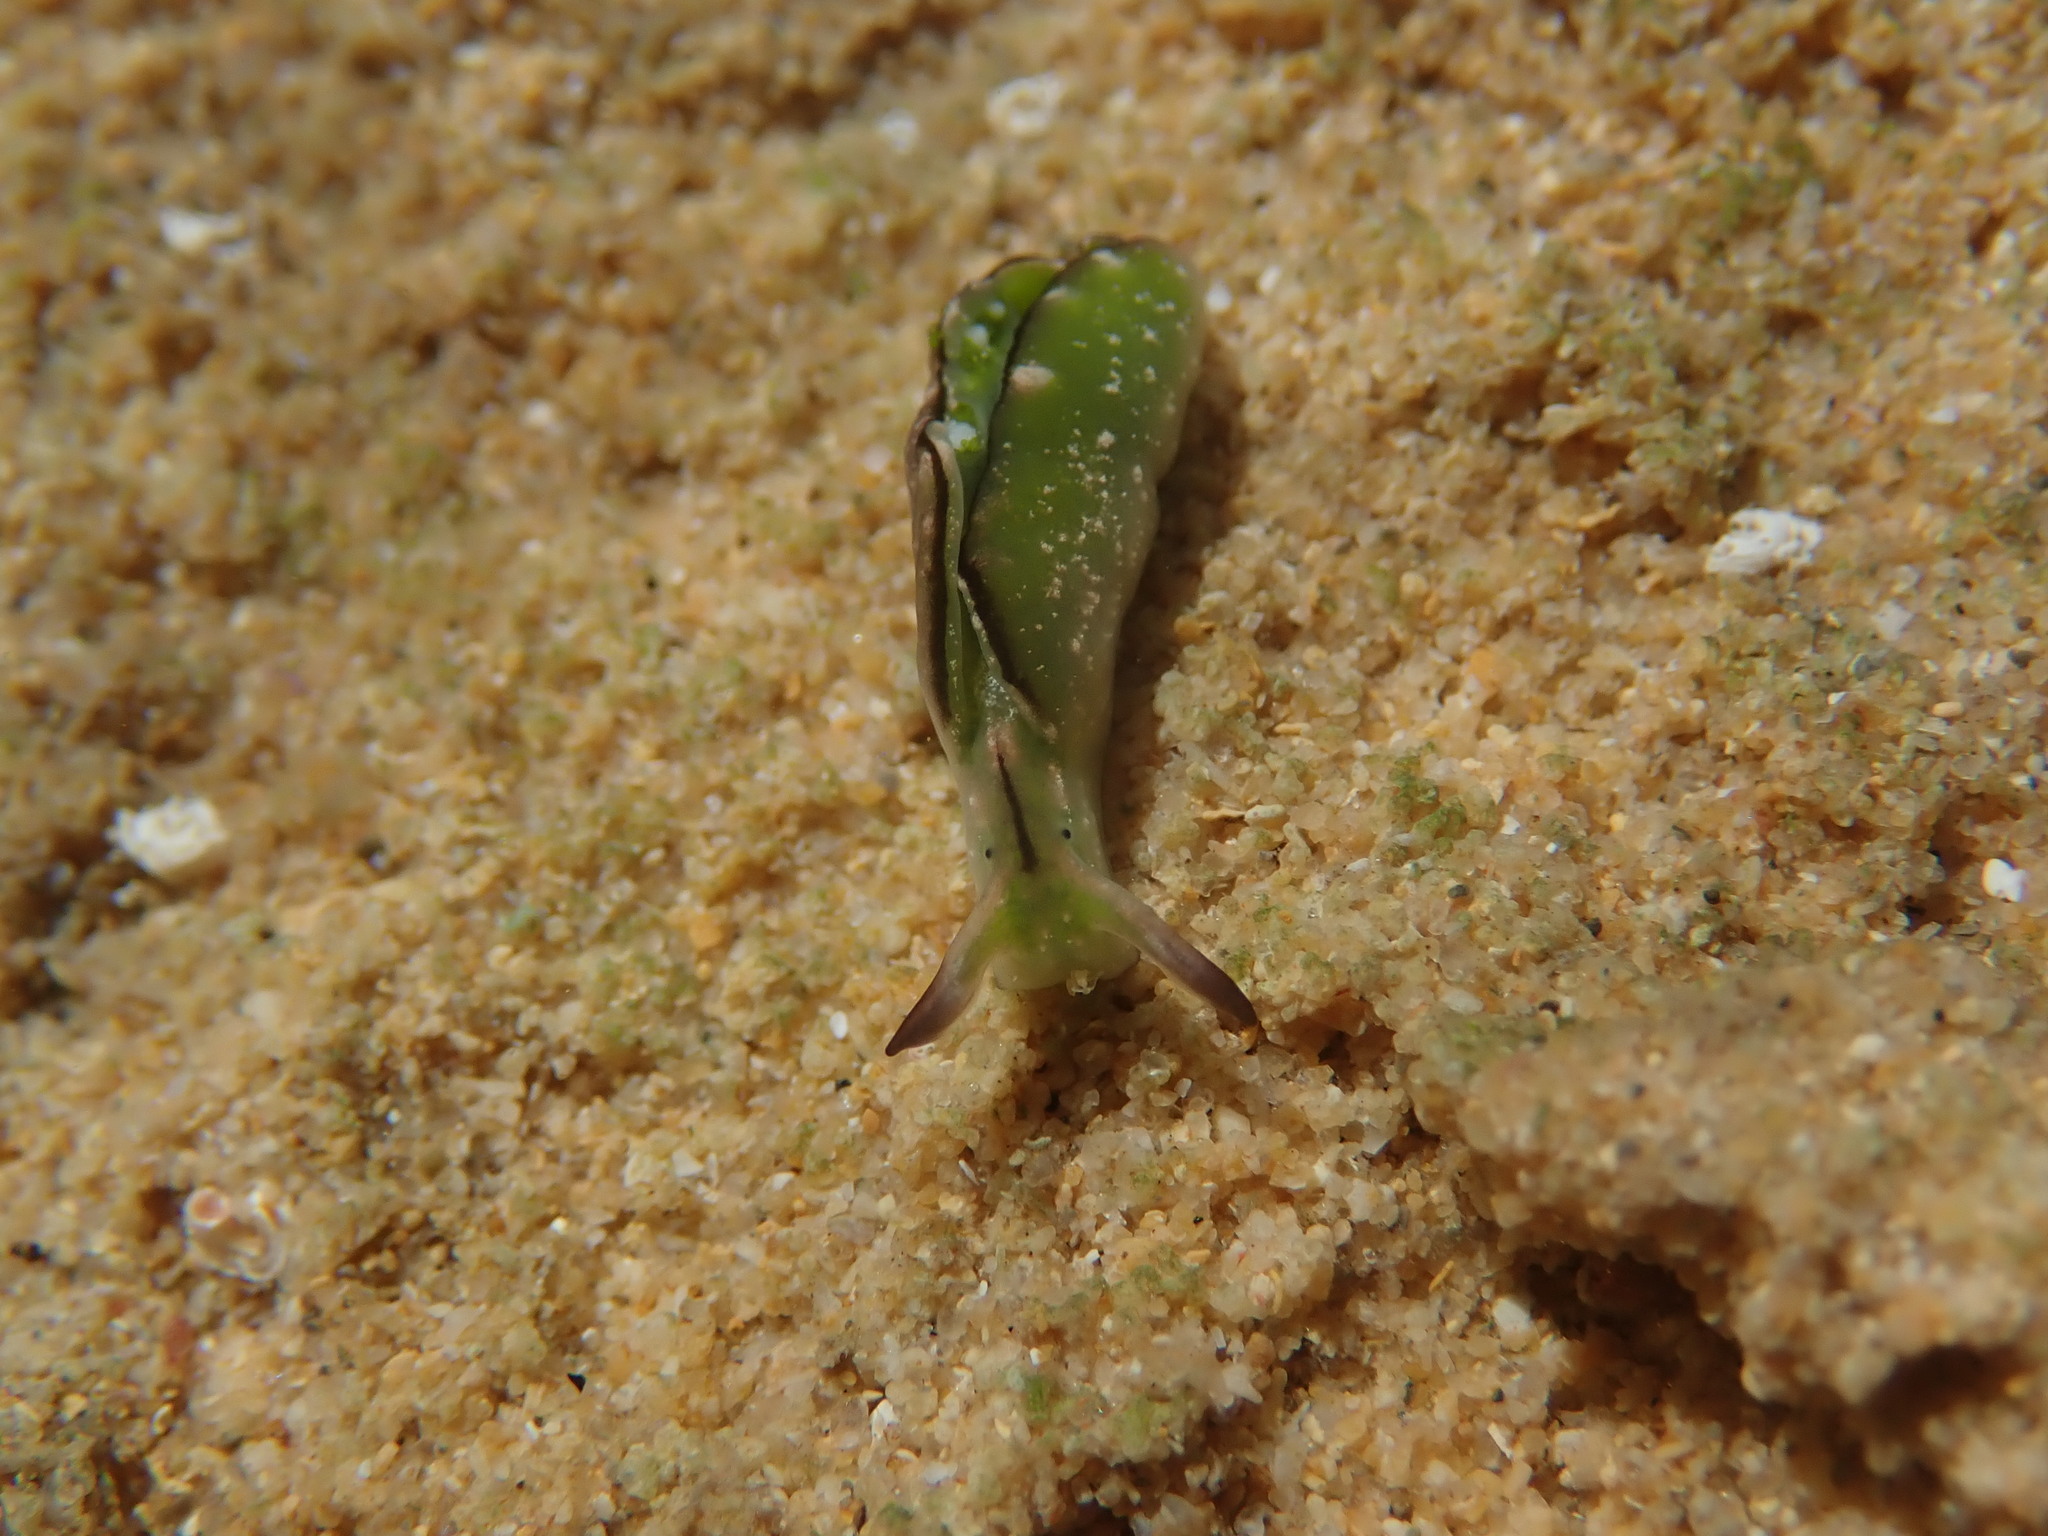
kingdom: Animalia
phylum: Mollusca
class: Gastropoda
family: Plakobranchidae
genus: Elysia
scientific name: Elysia coodgeensis
